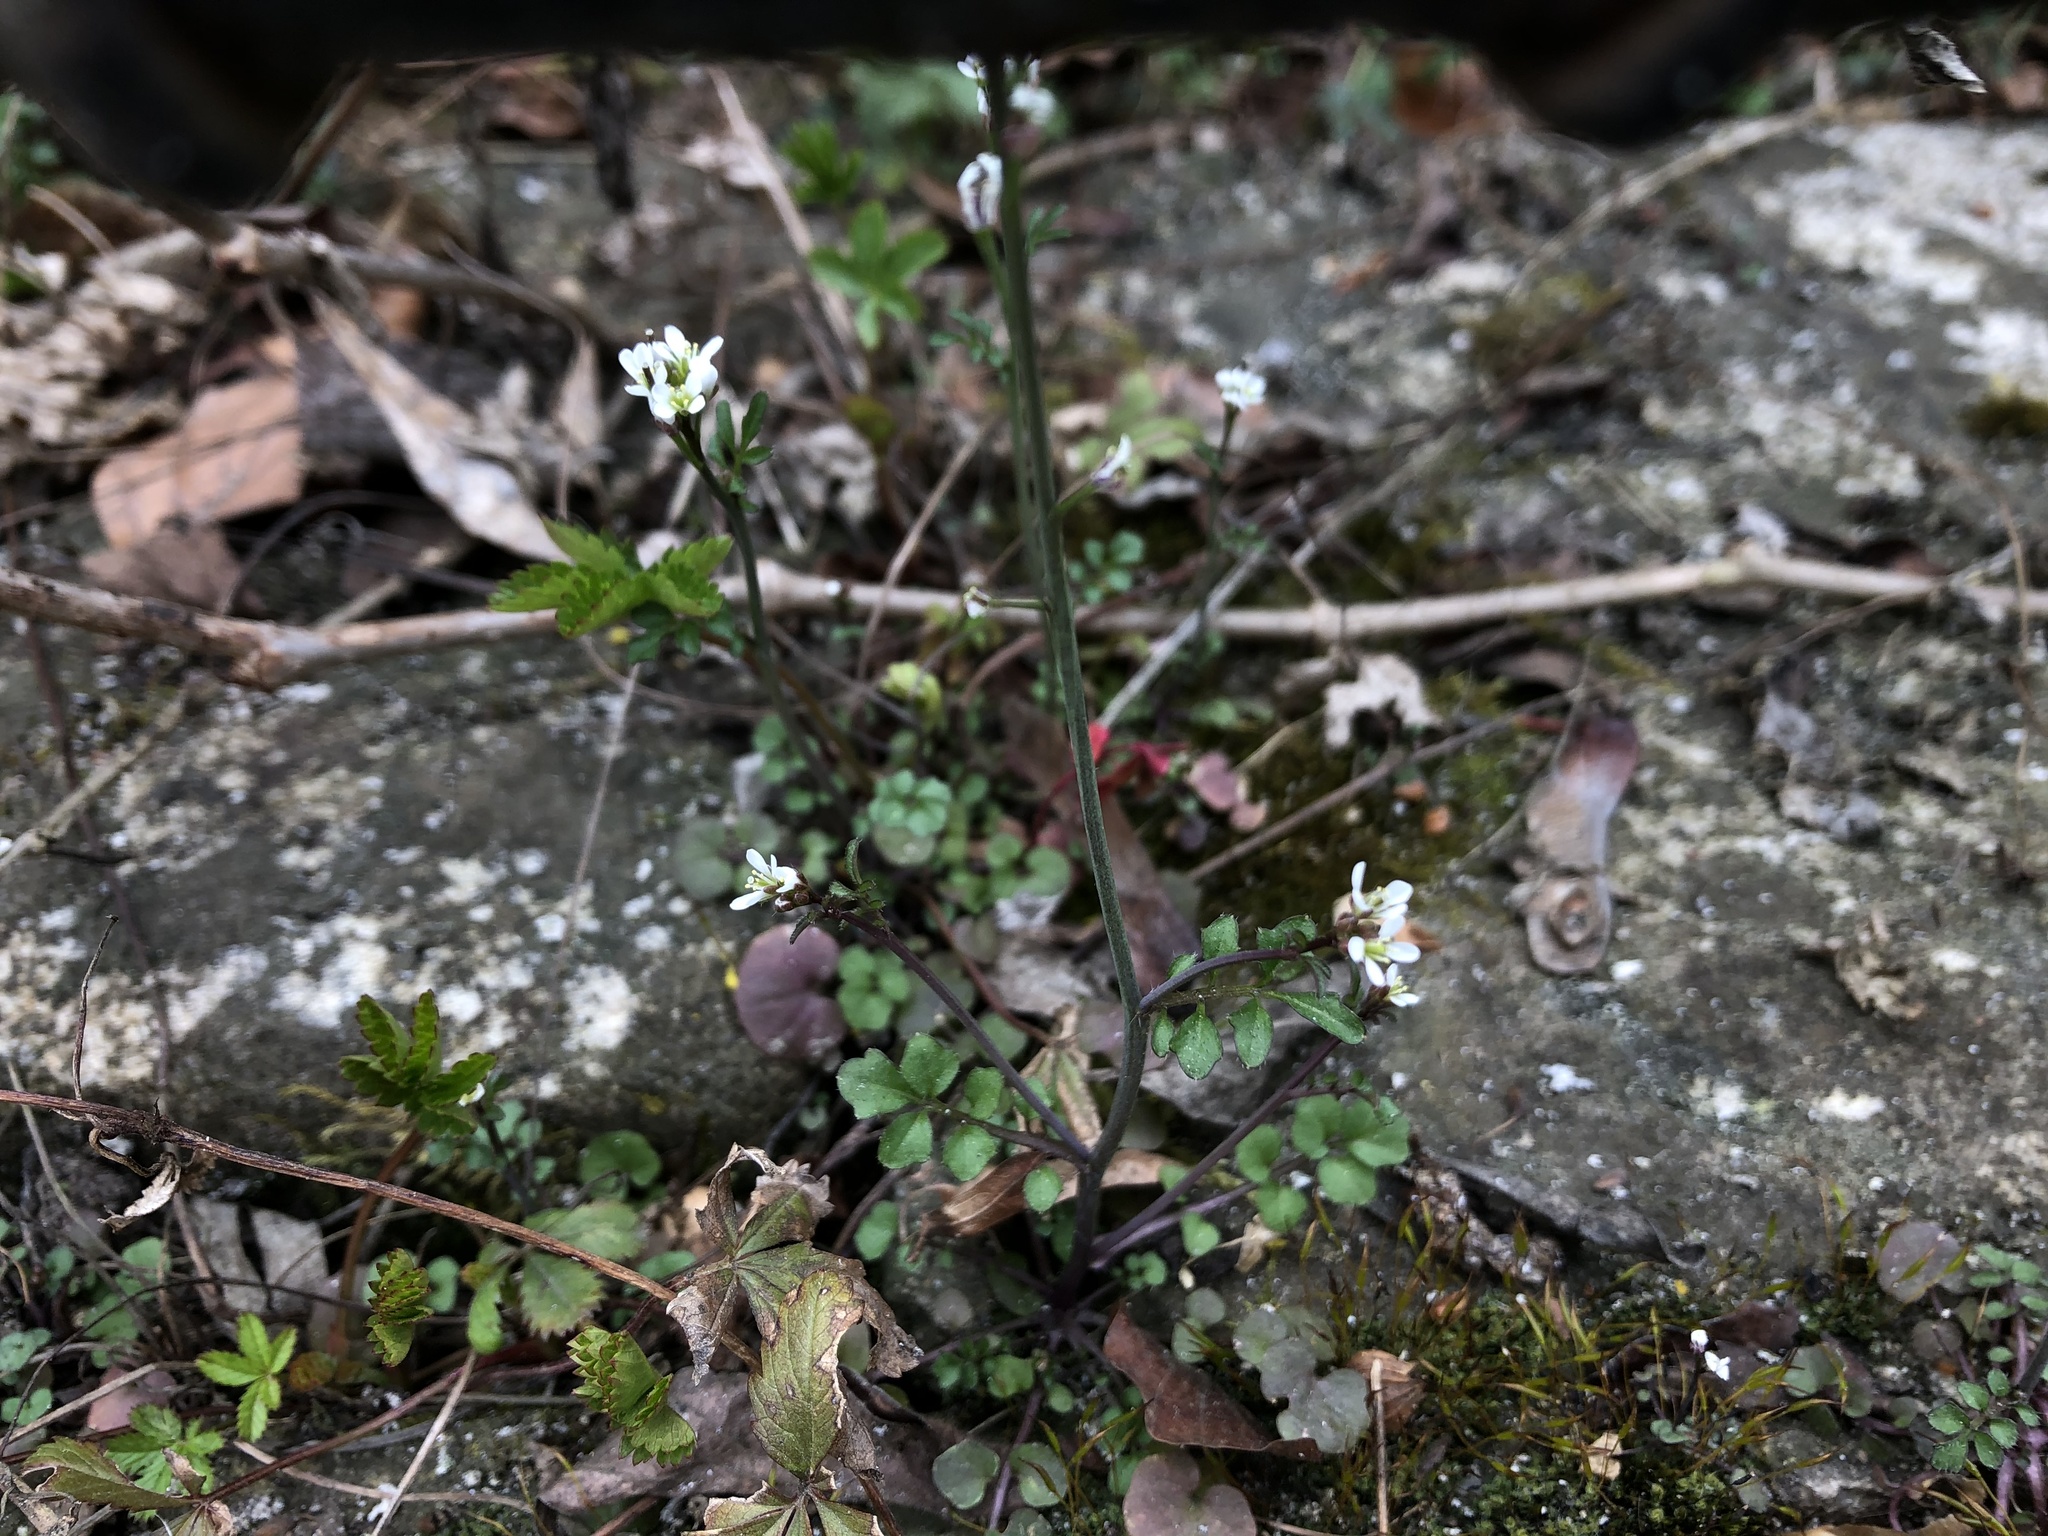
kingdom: Plantae
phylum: Tracheophyta
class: Magnoliopsida
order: Brassicales
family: Brassicaceae
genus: Cardamine
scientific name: Cardamine hirsuta
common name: Hairy bittercress
